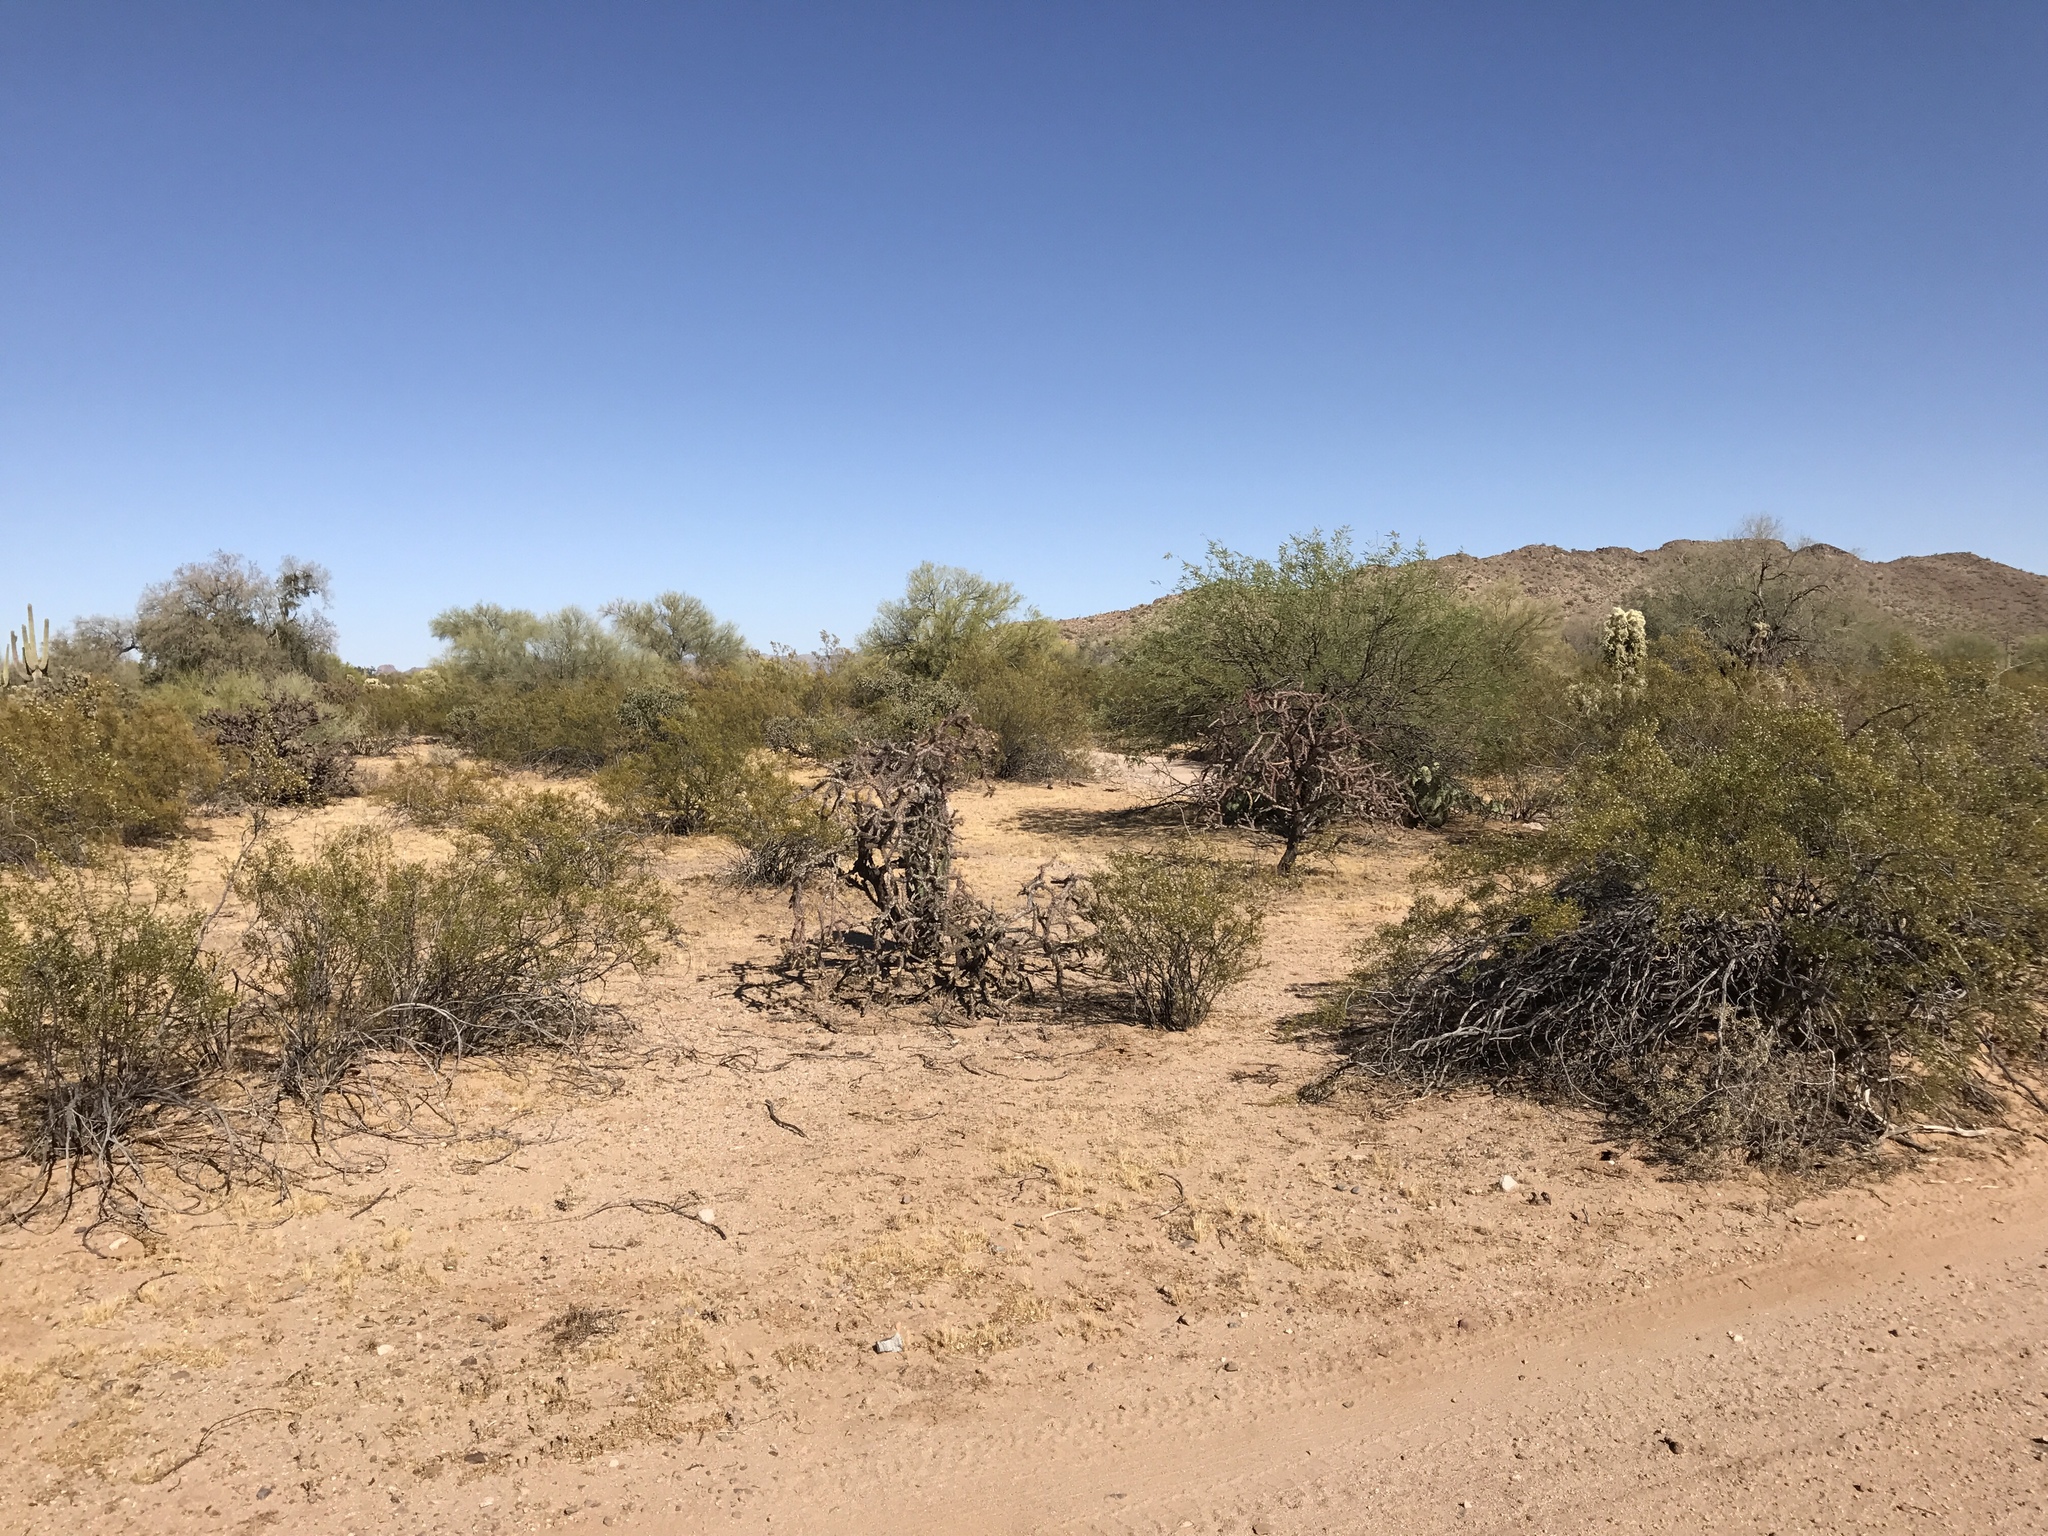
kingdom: Plantae
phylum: Tracheophyta
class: Magnoliopsida
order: Zygophyllales
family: Zygophyllaceae
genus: Larrea
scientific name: Larrea tridentata
